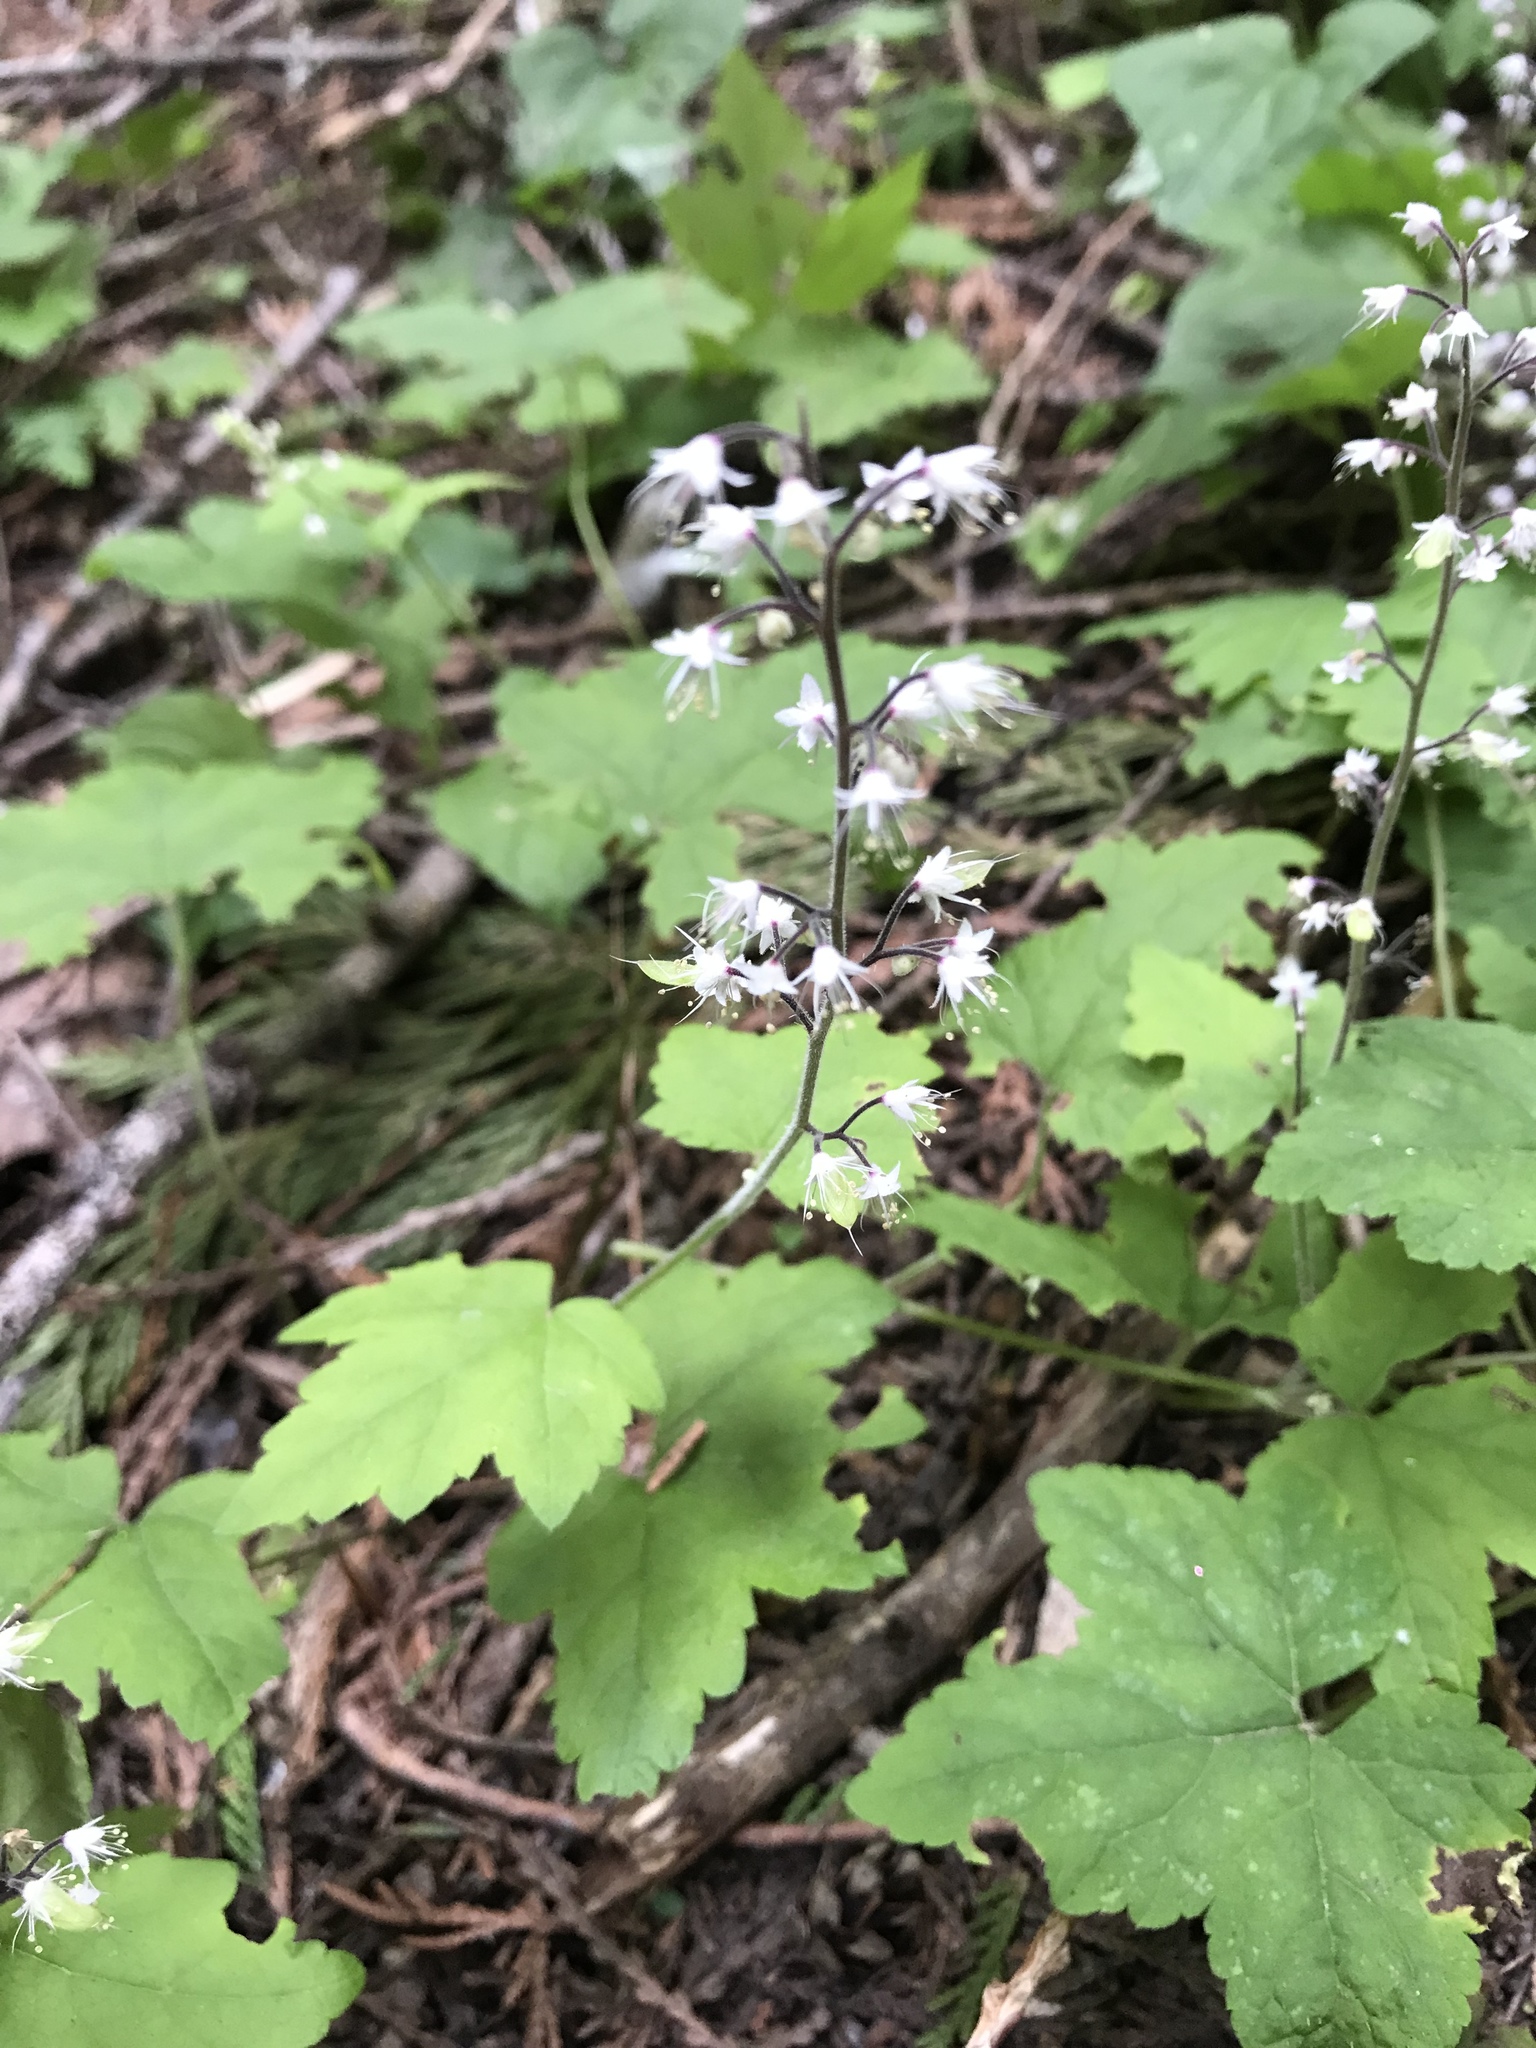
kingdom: Plantae
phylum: Tracheophyta
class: Magnoliopsida
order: Saxifragales
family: Saxifragaceae
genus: Tiarella
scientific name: Tiarella trifoliata
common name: Sugar-scoop
